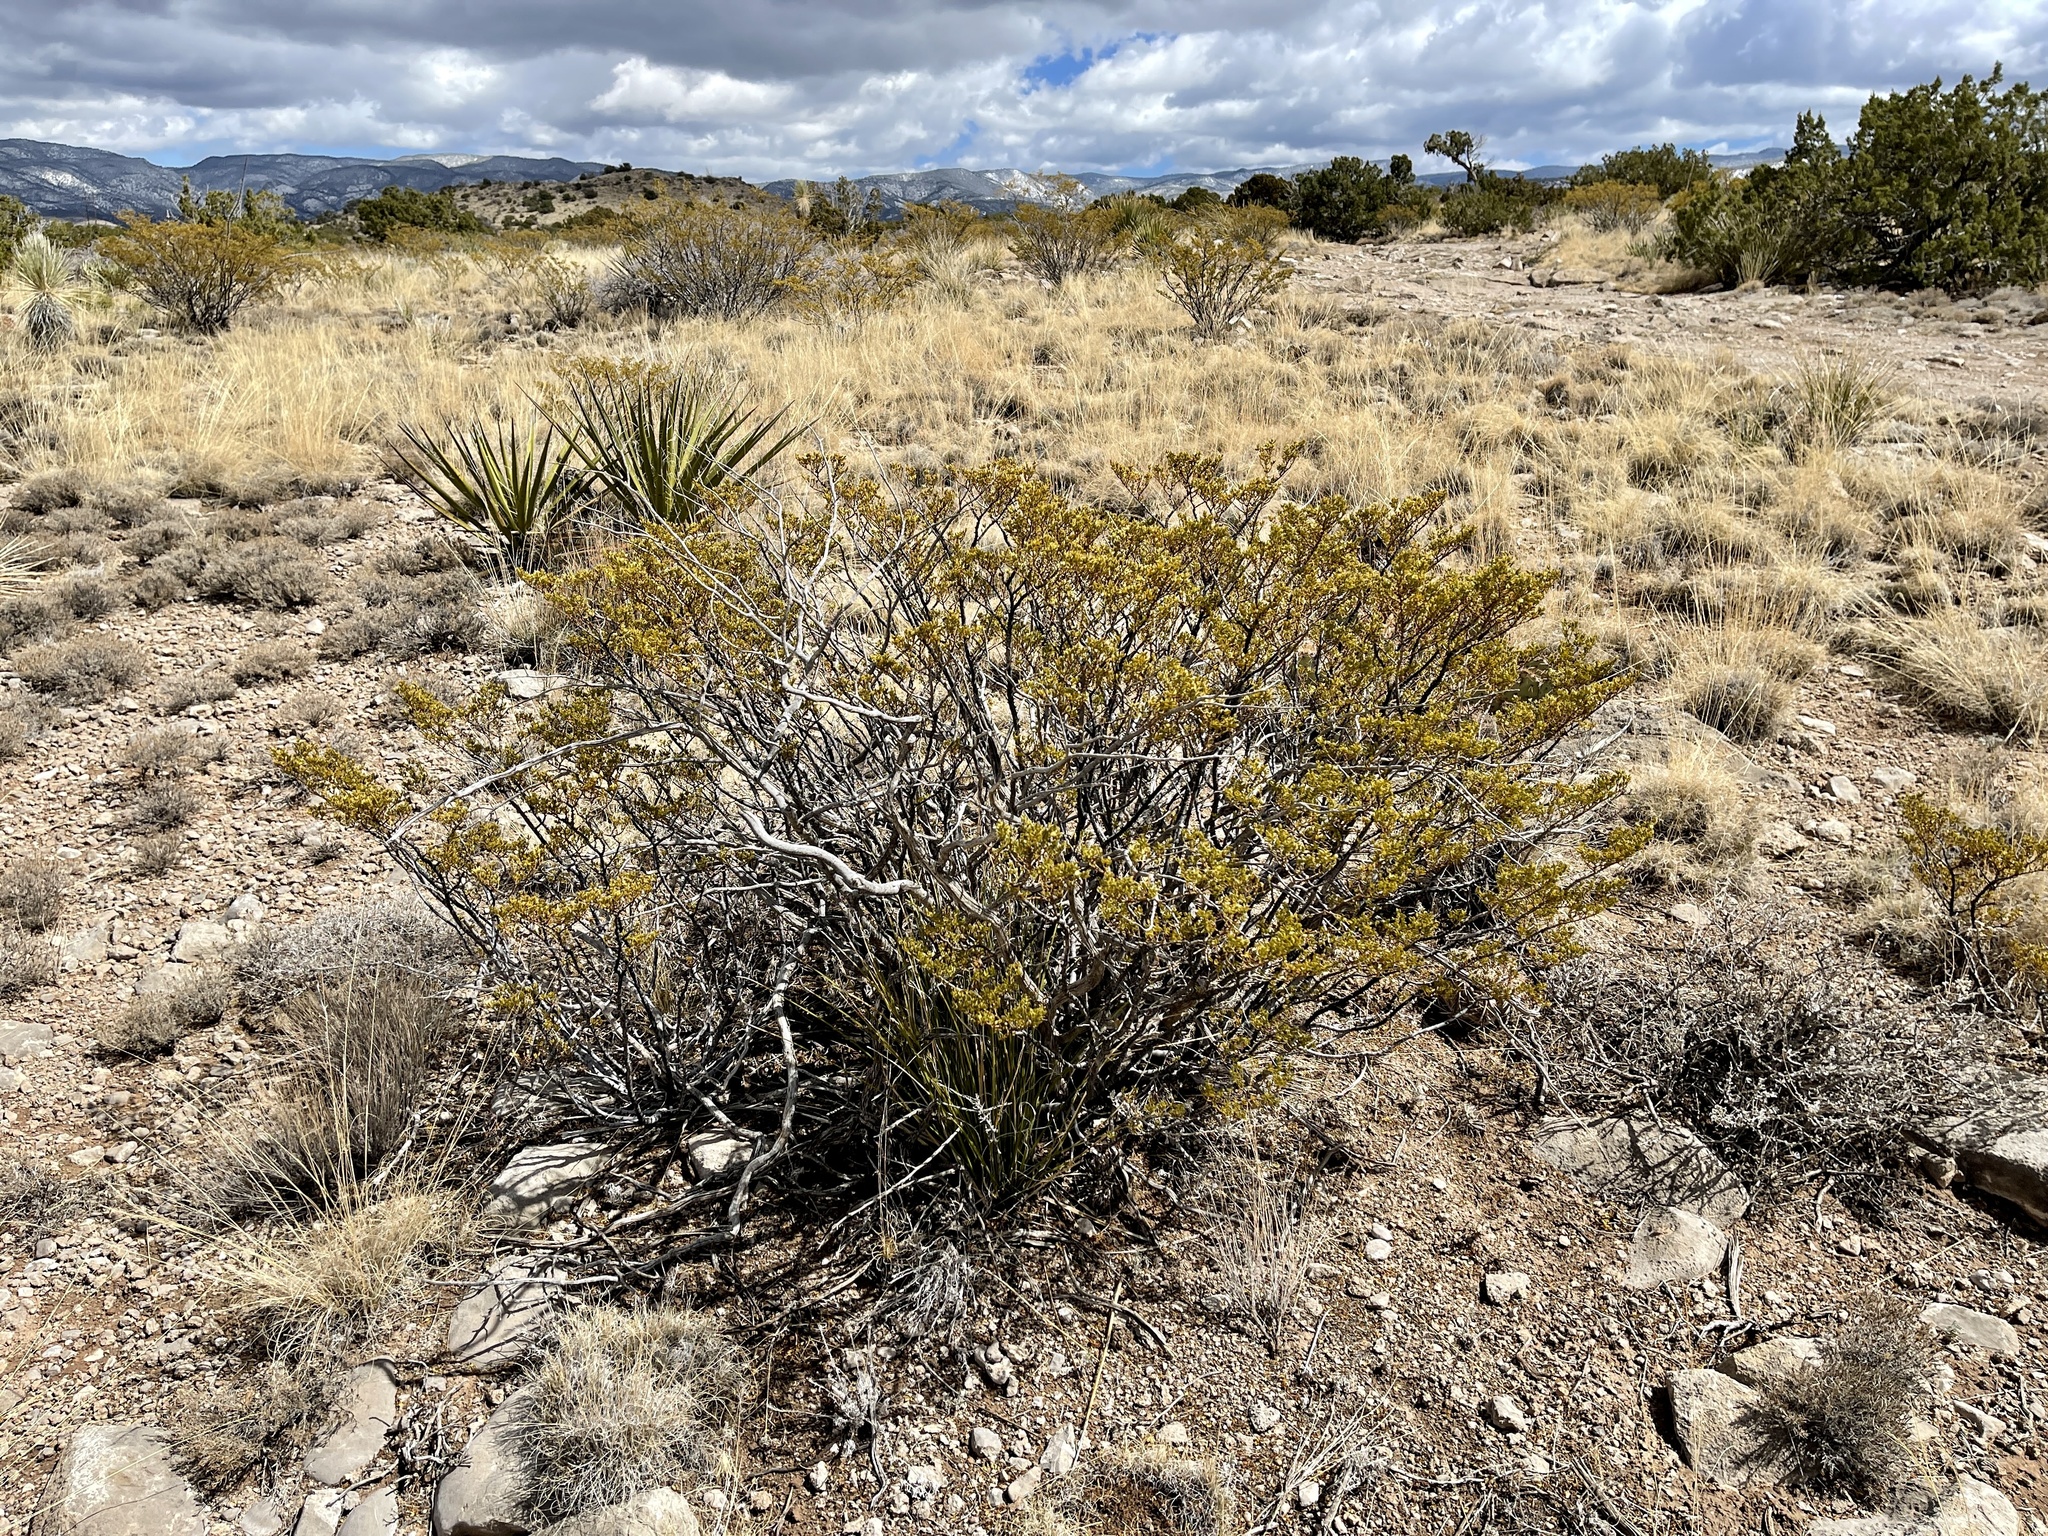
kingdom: Plantae
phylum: Tracheophyta
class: Magnoliopsida
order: Zygophyllales
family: Zygophyllaceae
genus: Larrea
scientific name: Larrea tridentata
